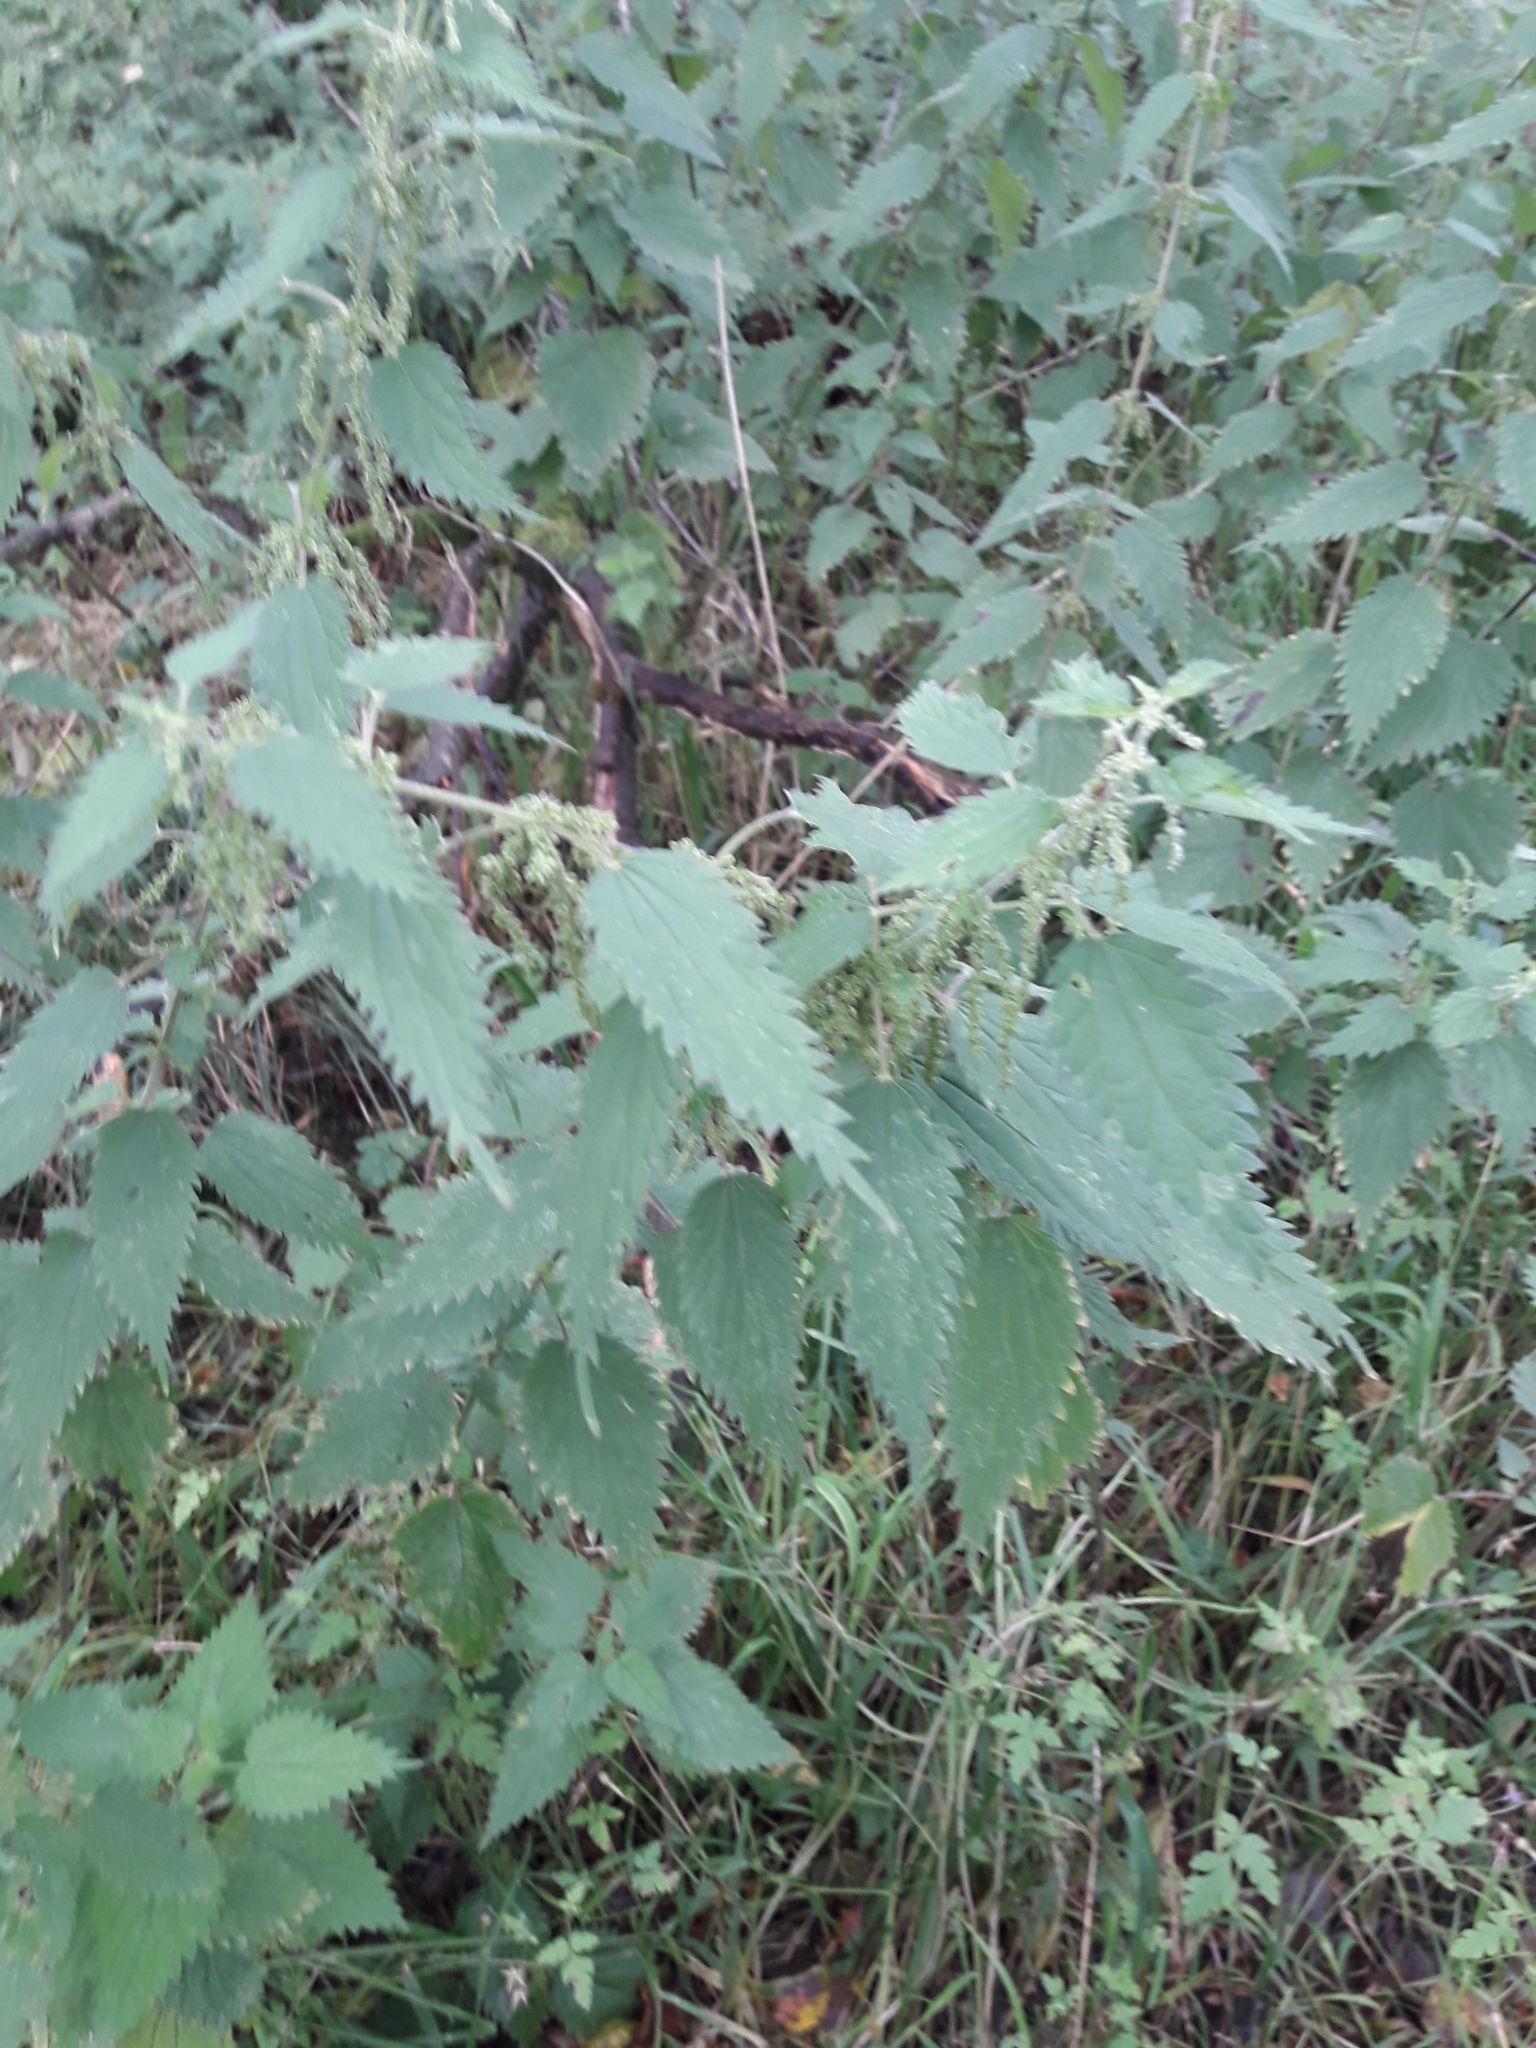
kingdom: Plantae
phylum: Tracheophyta
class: Magnoliopsida
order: Rosales
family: Urticaceae
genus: Urtica
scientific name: Urtica dioica
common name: Common nettle
